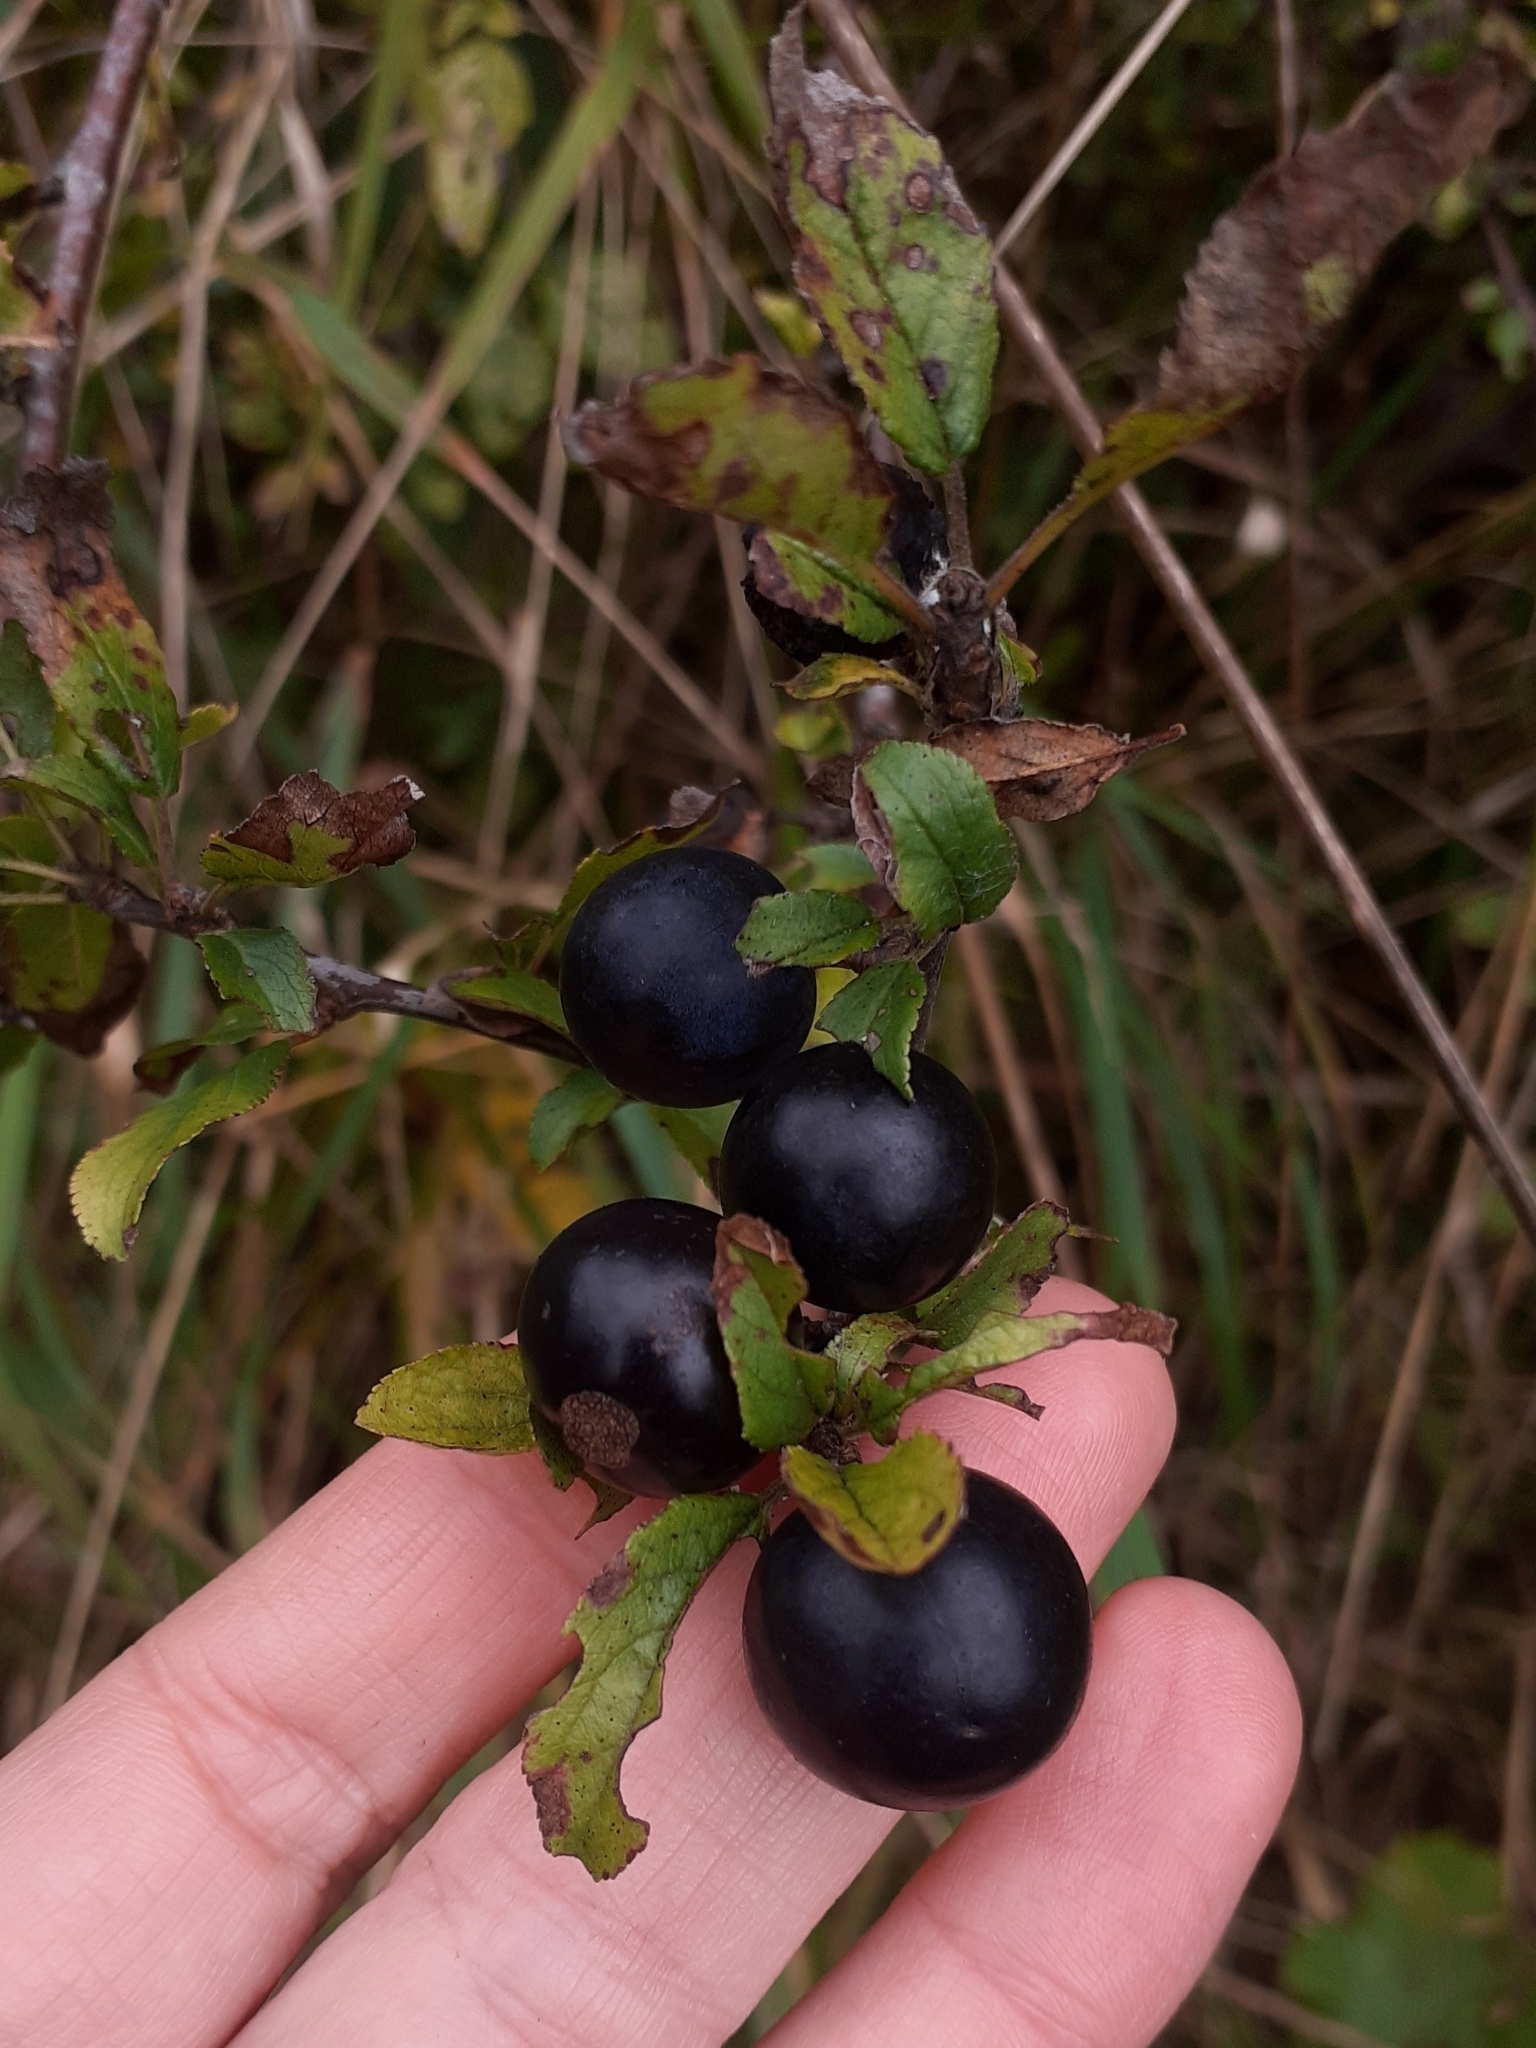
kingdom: Plantae
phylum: Tracheophyta
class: Magnoliopsida
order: Rosales
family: Rosaceae
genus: Prunus
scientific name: Prunus spinosa
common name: Blackthorn
